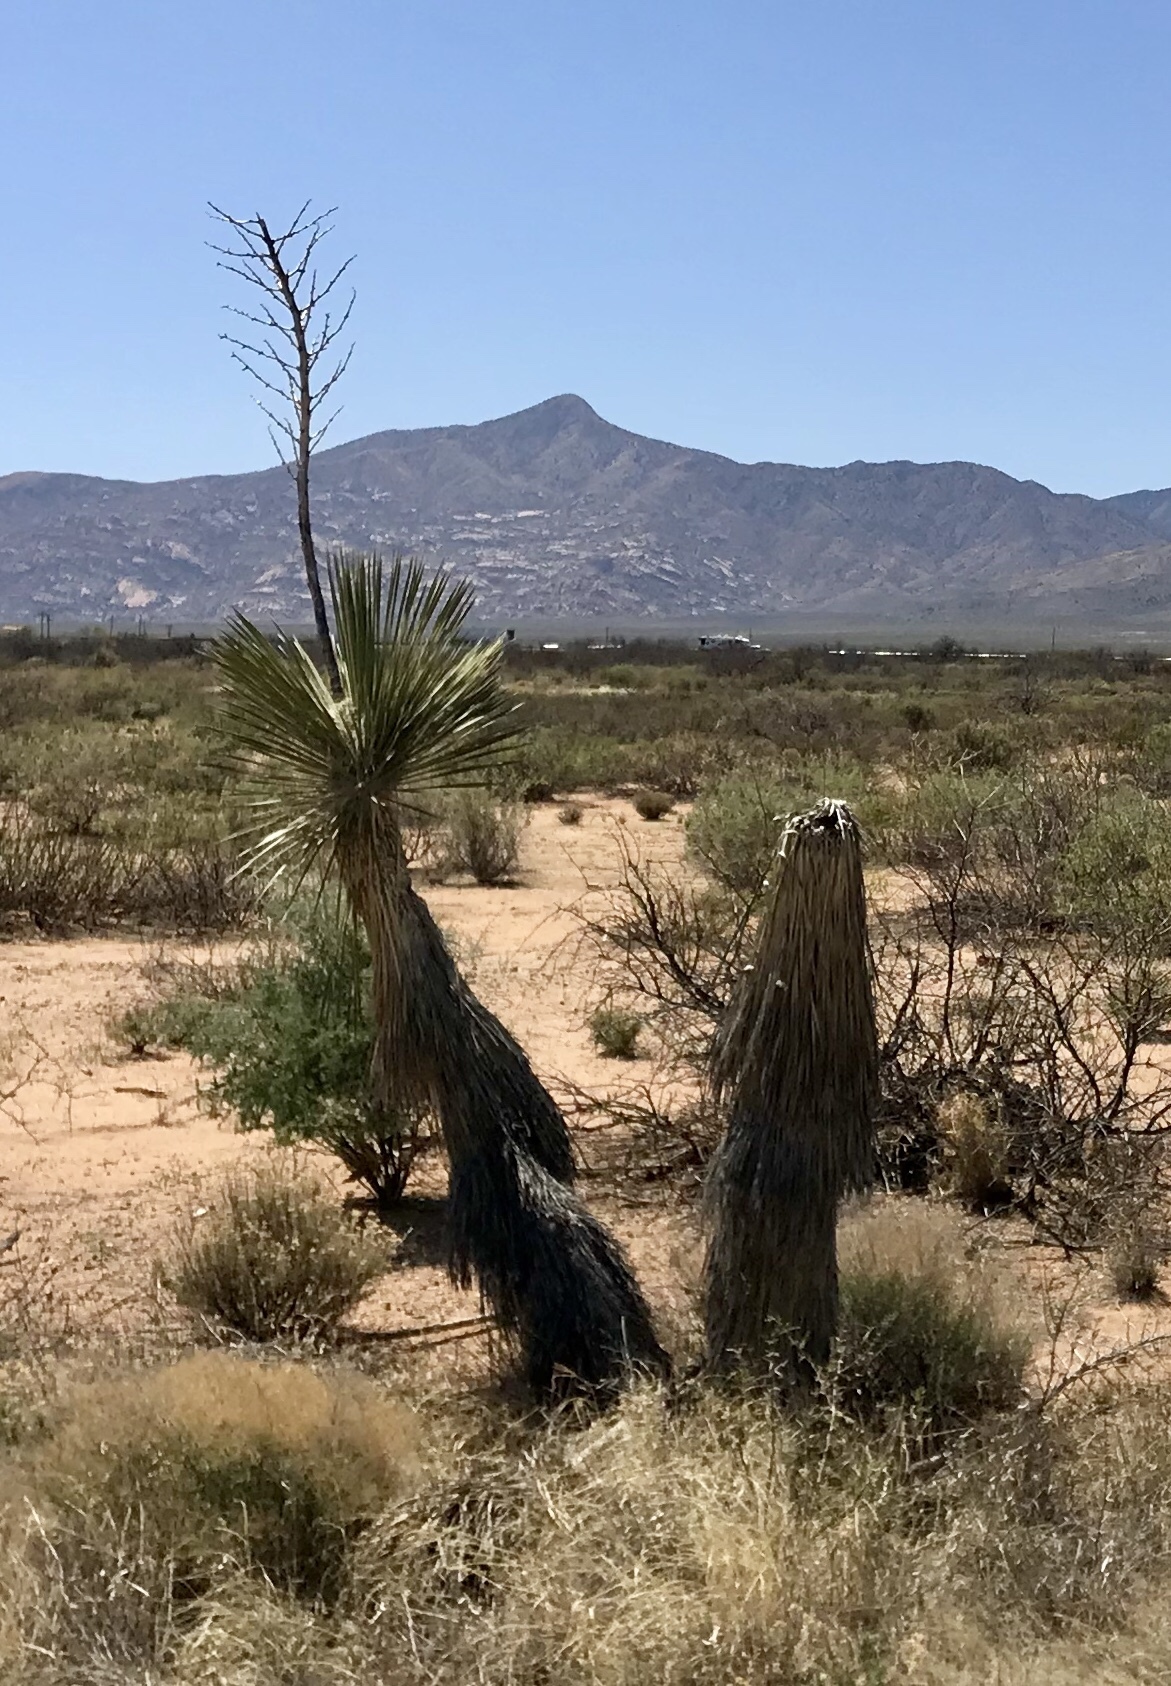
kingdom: Plantae
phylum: Tracheophyta
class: Liliopsida
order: Asparagales
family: Asparagaceae
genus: Yucca
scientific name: Yucca elata
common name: Palmella
